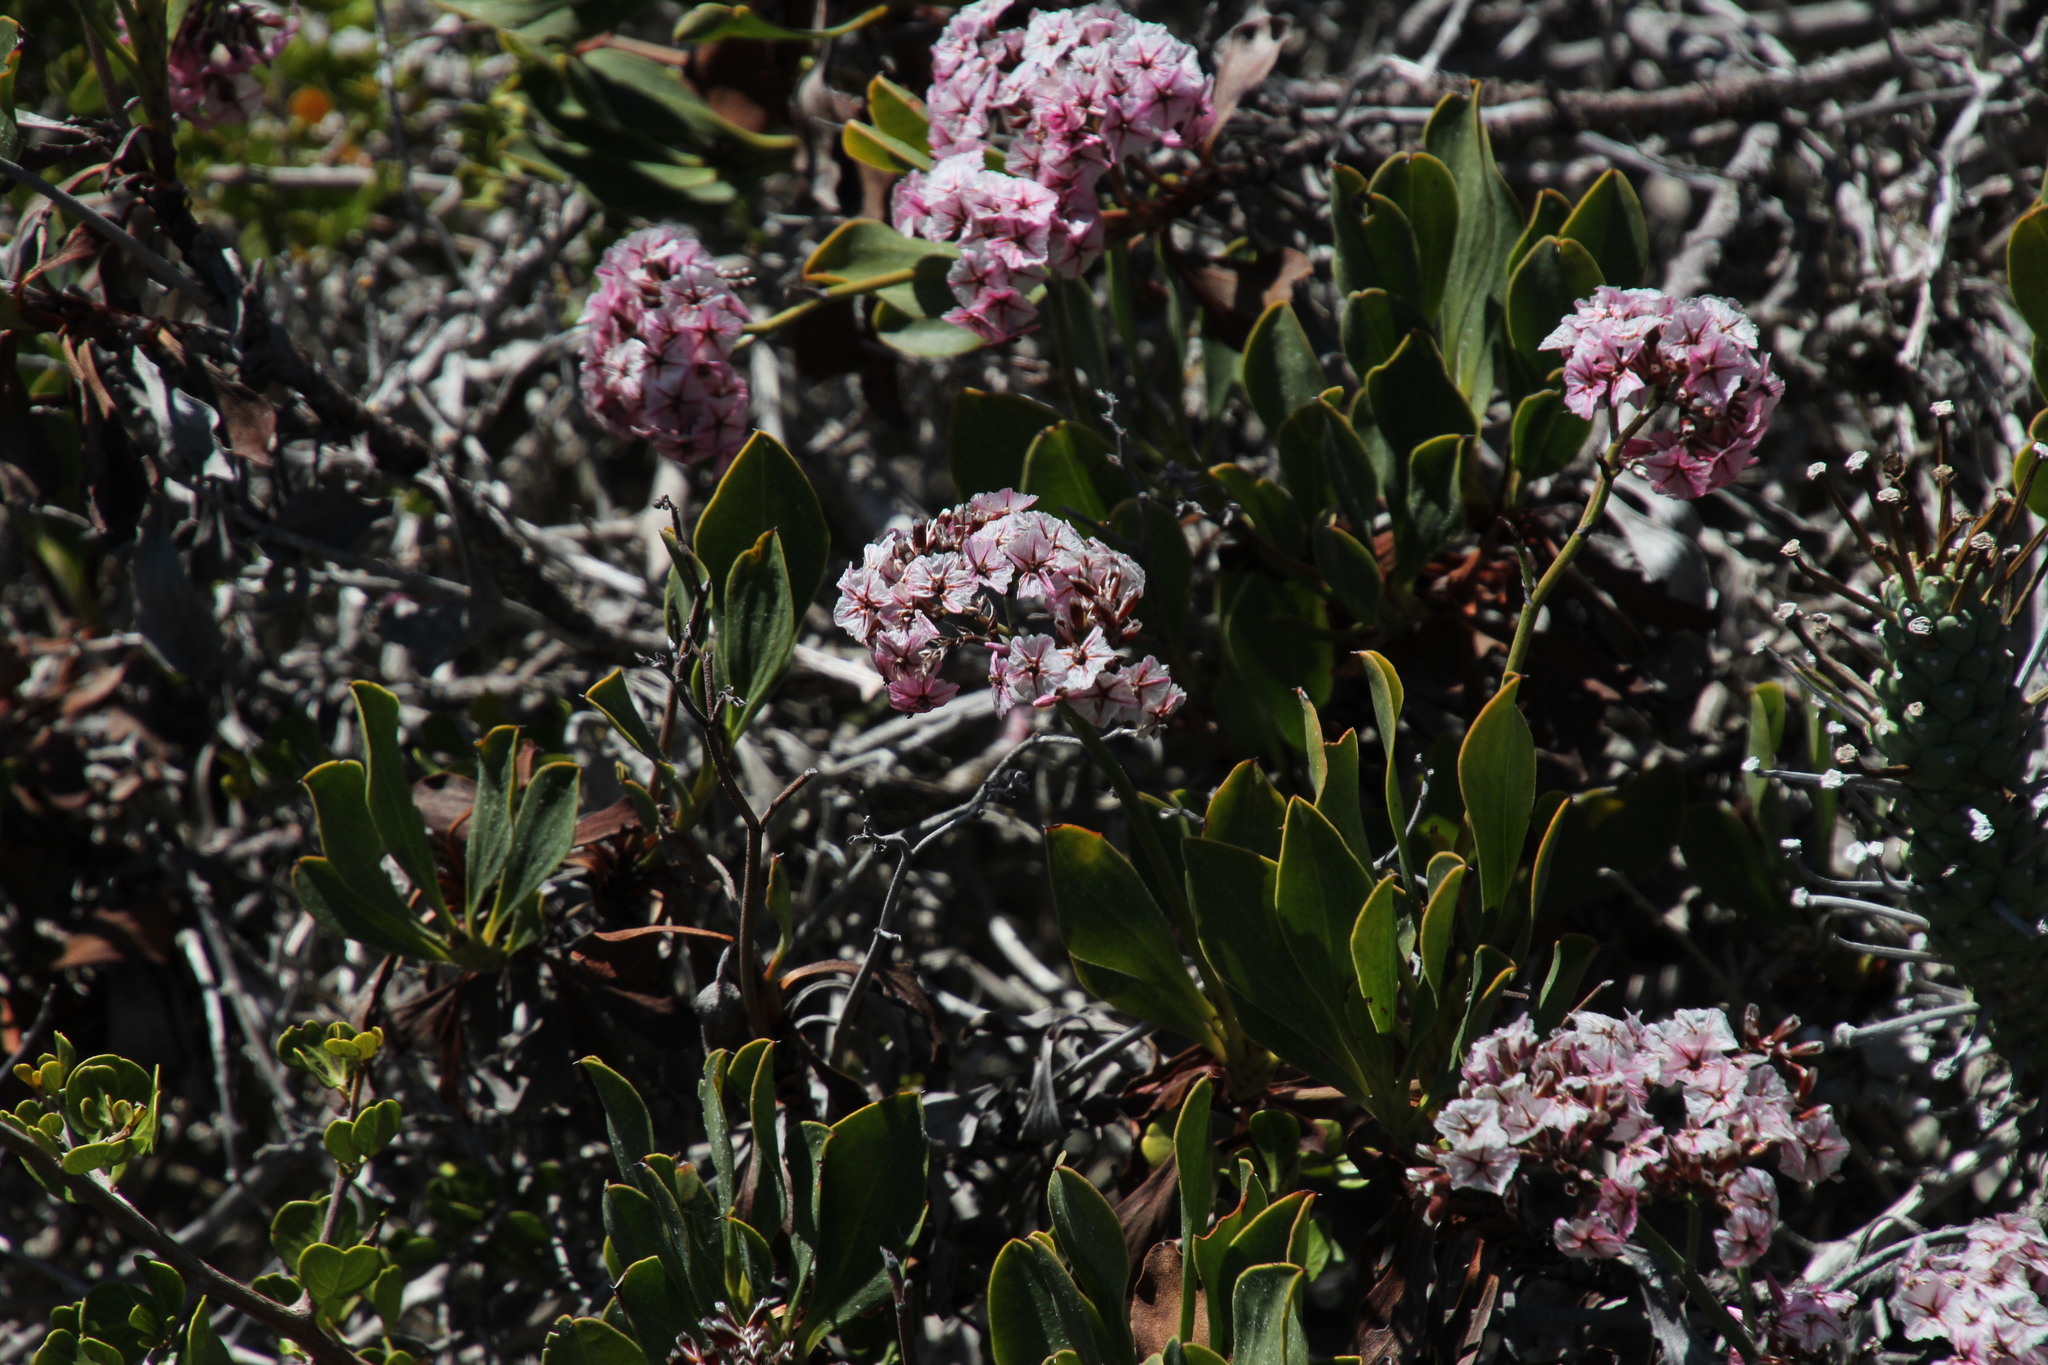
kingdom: Plantae
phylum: Tracheophyta
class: Magnoliopsida
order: Caryophyllales
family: Plumbaginaceae
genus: Limonium
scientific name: Limonium peregrinum
